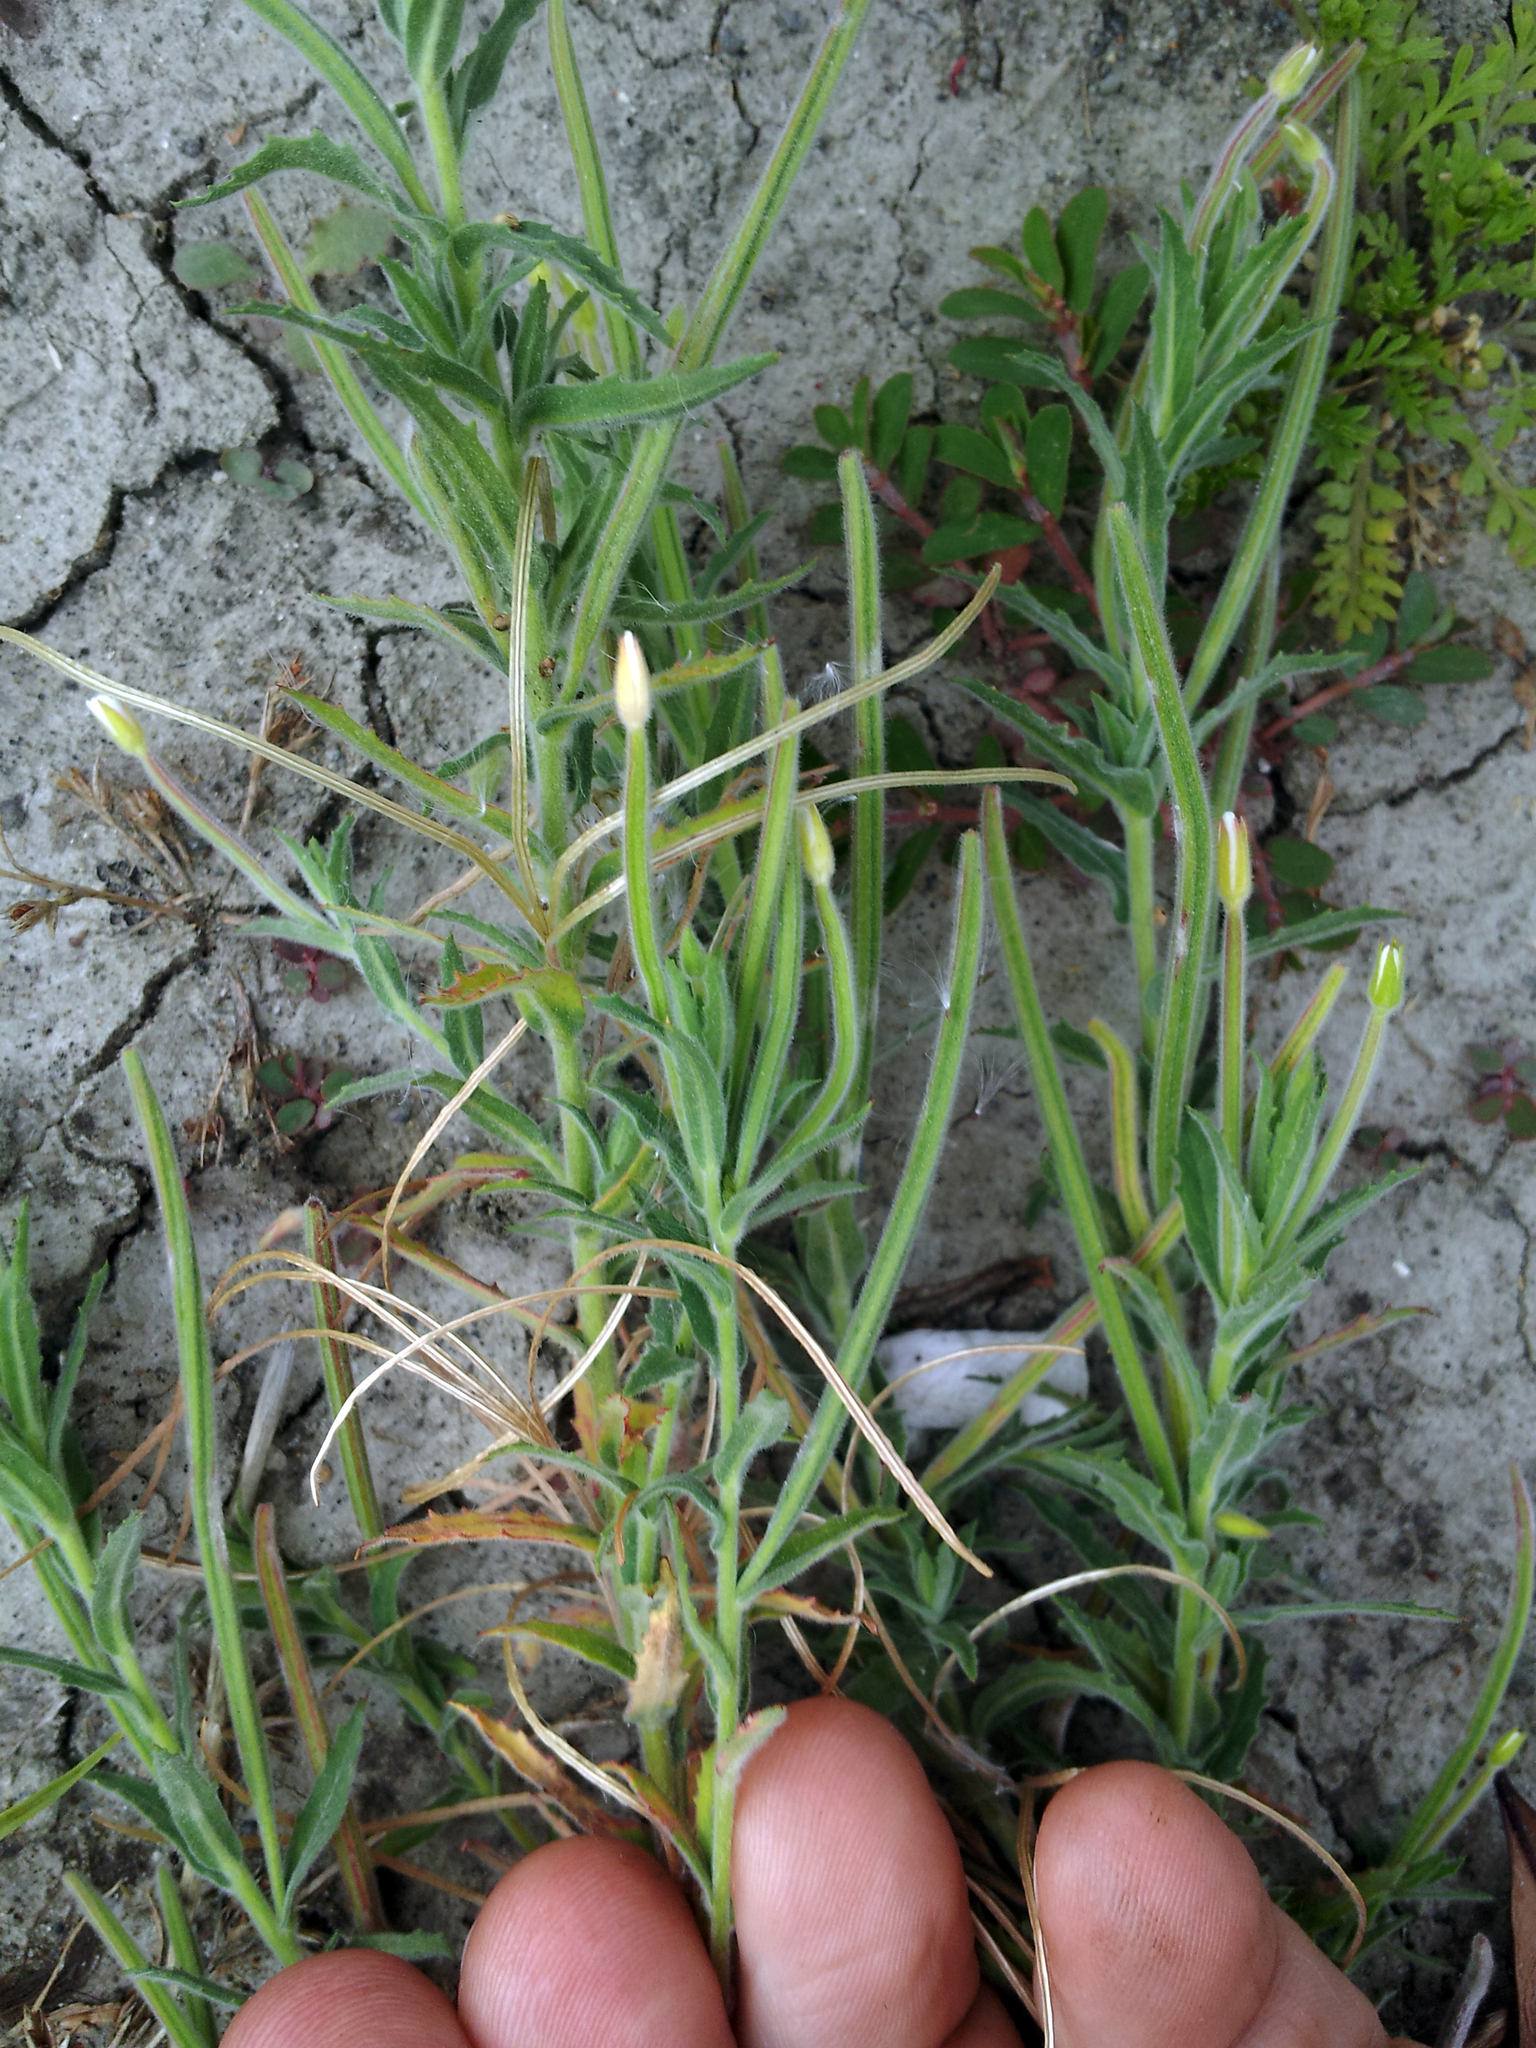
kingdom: Plantae
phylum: Tracheophyta
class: Magnoliopsida
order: Myrtales
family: Onagraceae
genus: Epilobium
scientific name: Epilobium hirtigerum
